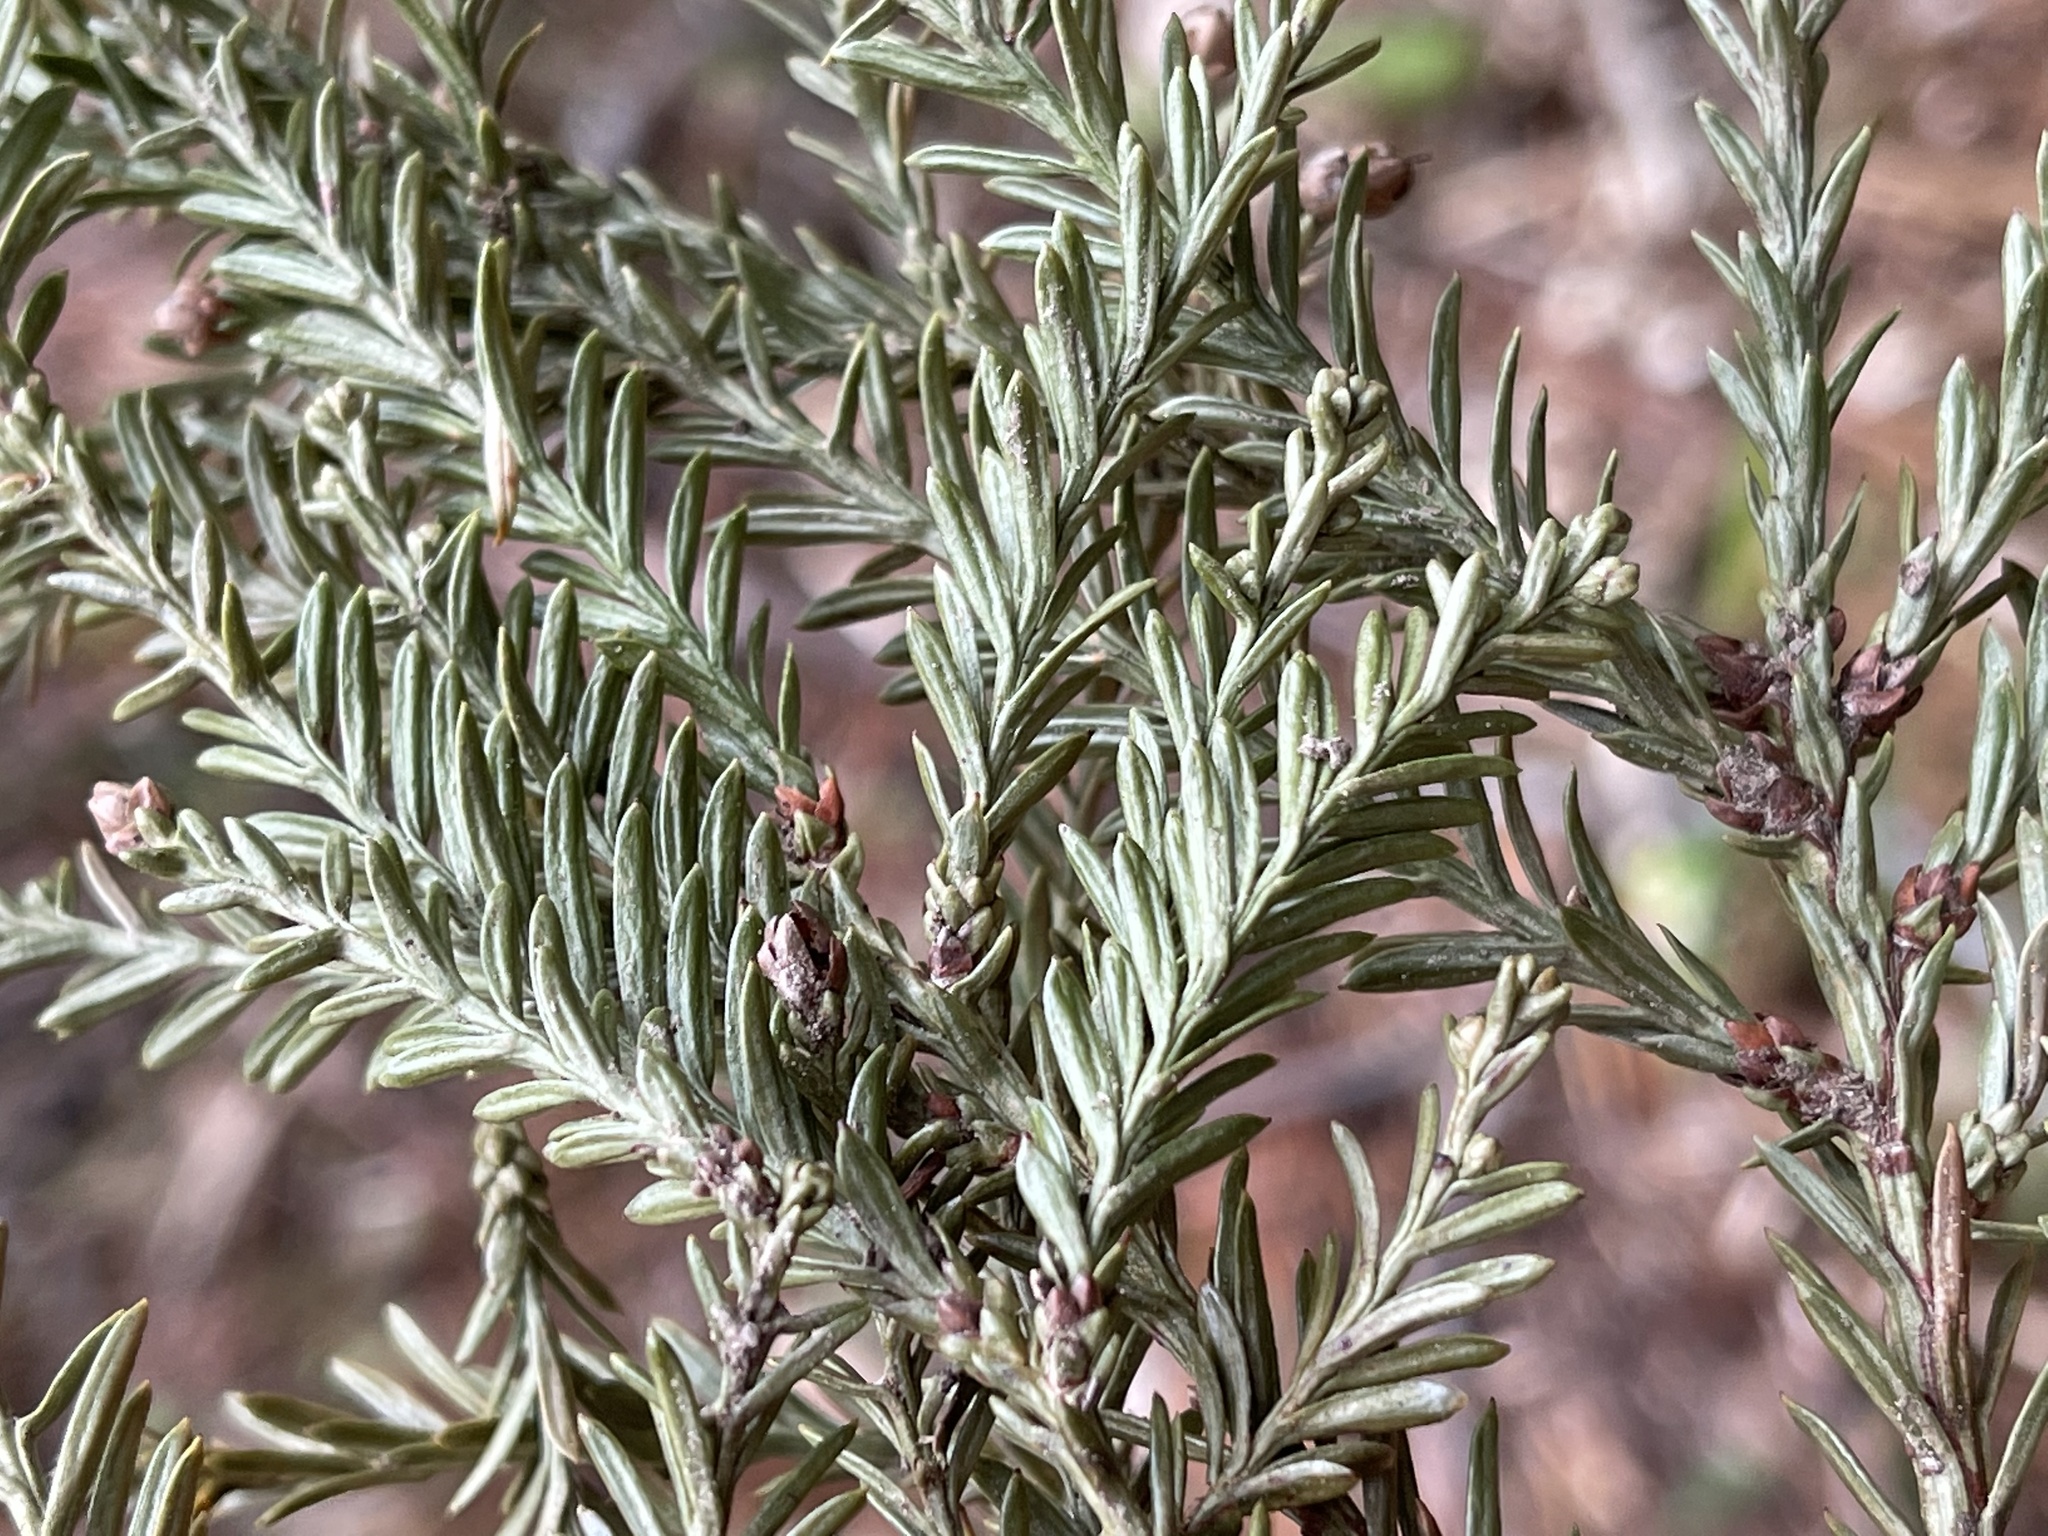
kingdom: Plantae
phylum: Tracheophyta
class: Pinopsida
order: Pinales
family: Cupressaceae
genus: Sequoia
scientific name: Sequoia sempervirens
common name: Coast redwood
